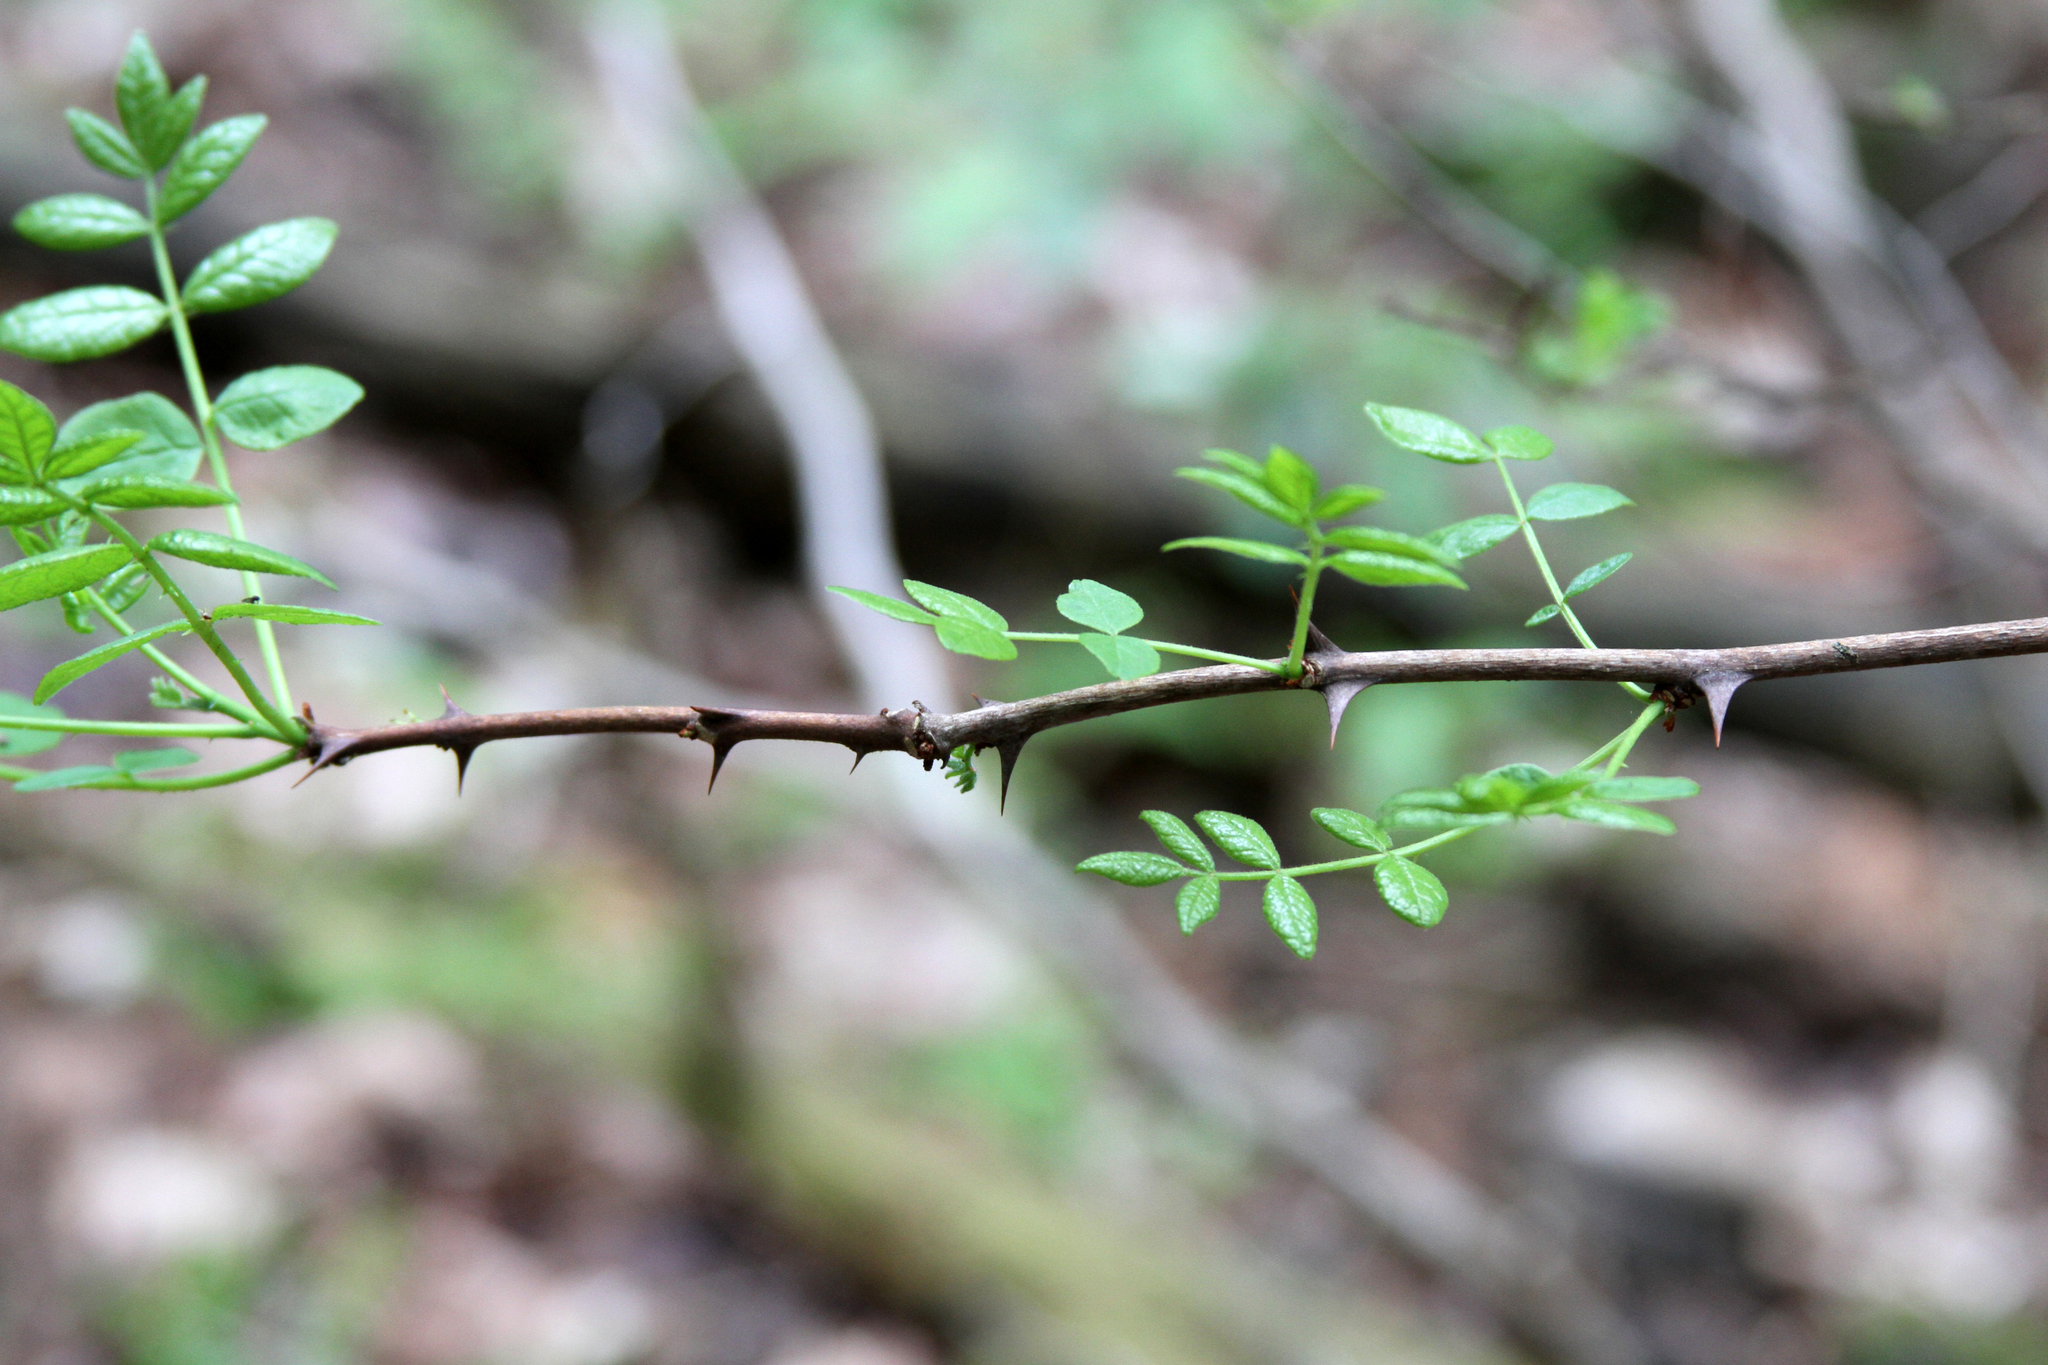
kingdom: Plantae
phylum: Tracheophyta
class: Magnoliopsida
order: Sapindales
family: Rutaceae
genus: Zanthoxylum
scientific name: Zanthoxylum americanum
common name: Northern prickly-ash
